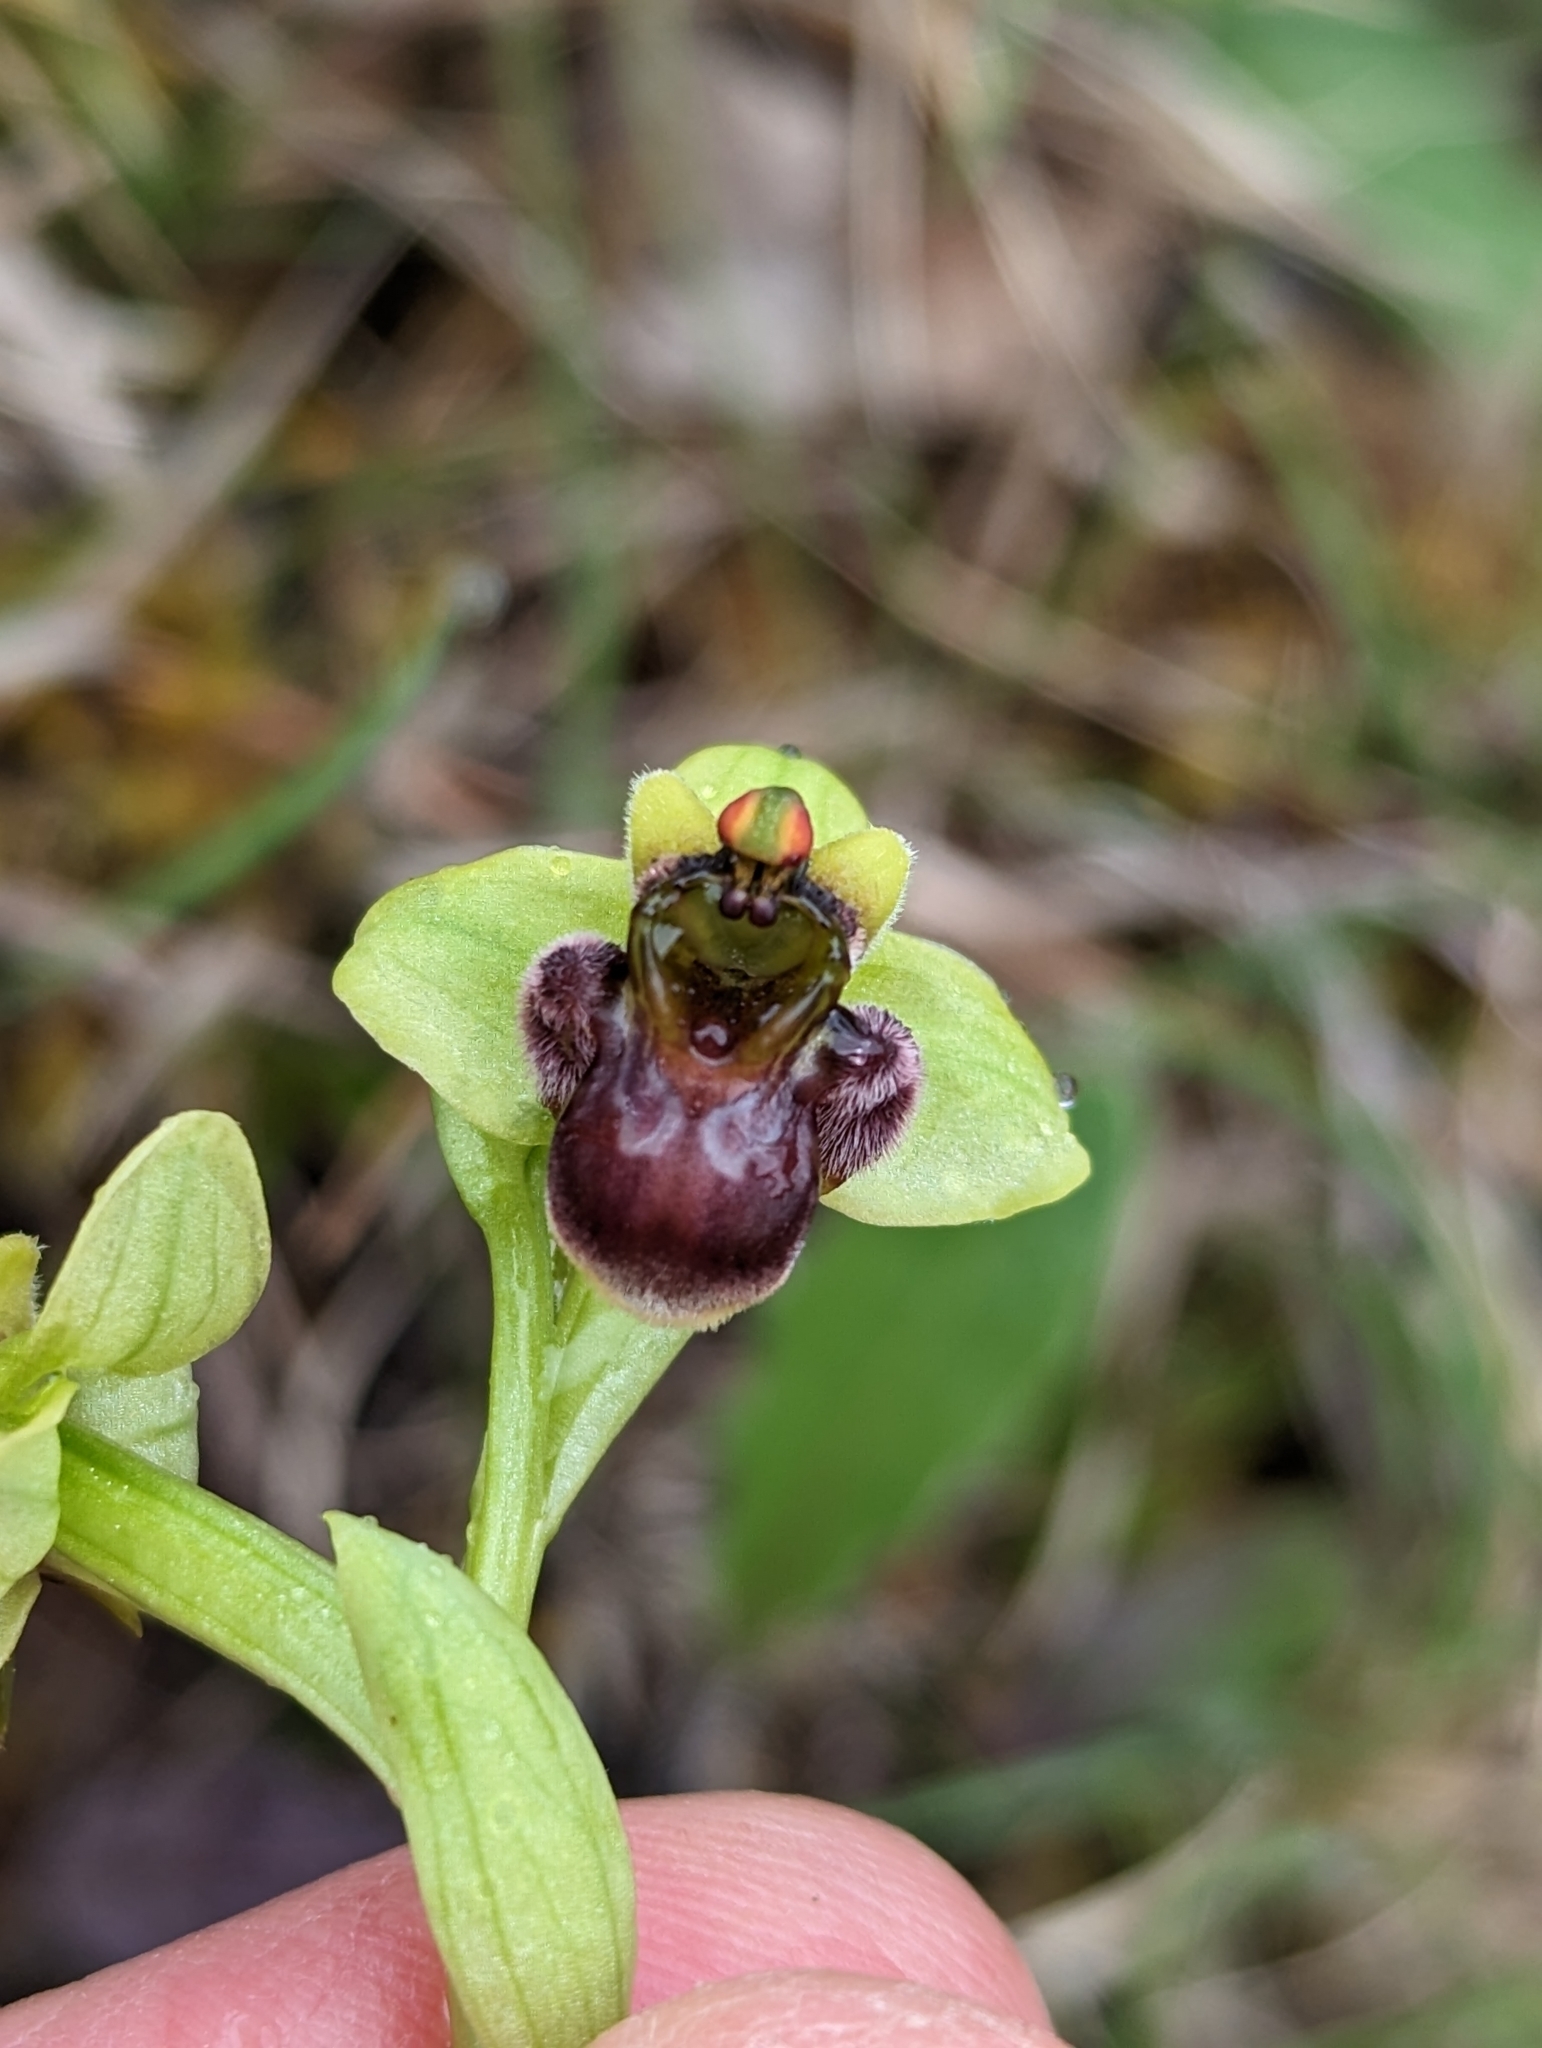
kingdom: Plantae
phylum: Tracheophyta
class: Liliopsida
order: Asparagales
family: Orchidaceae
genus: Ophrys
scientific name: Ophrys bombyliflora
